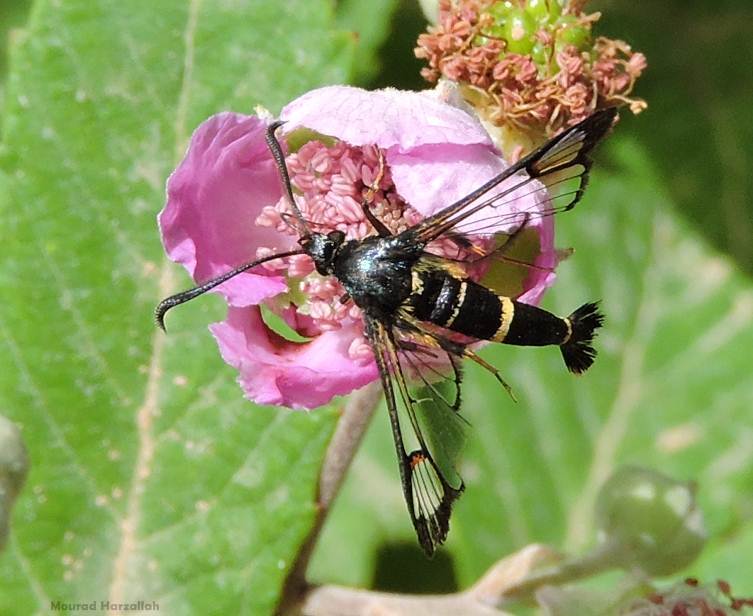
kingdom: Animalia
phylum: Arthropoda
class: Insecta
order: Lepidoptera
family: Sesiidae
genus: Synanthedon
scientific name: Synanthedon codeti
